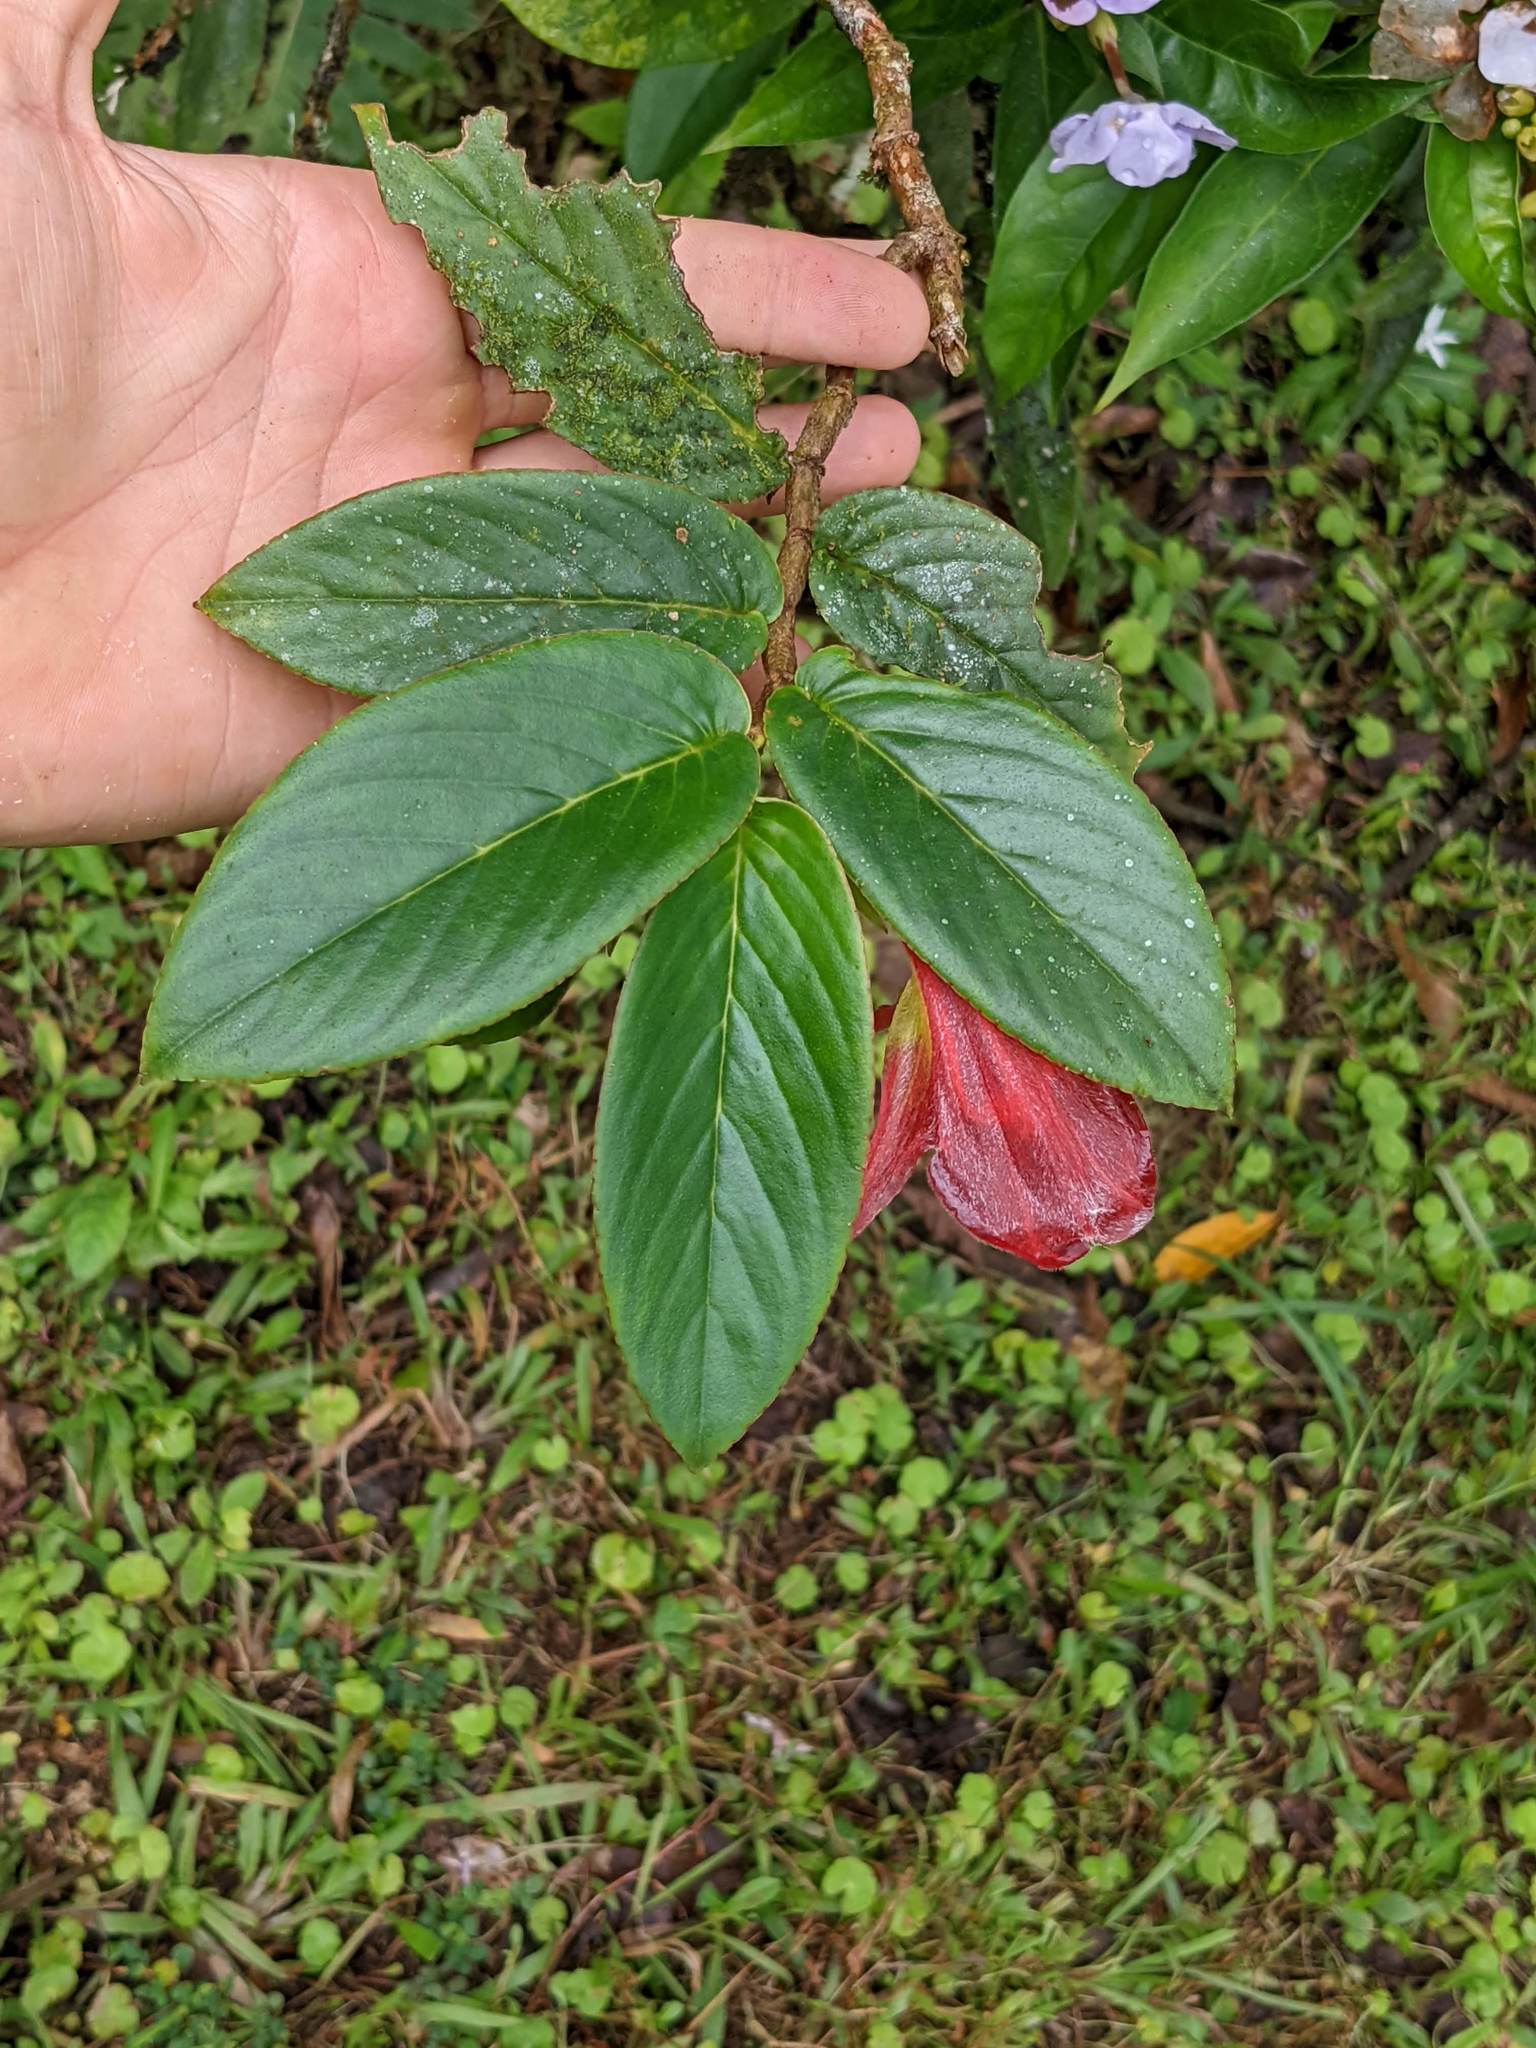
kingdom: Plantae
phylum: Tracheophyta
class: Magnoliopsida
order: Lamiales
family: Gesneriaceae
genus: Columnea
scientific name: Columnea nicaraguensis
